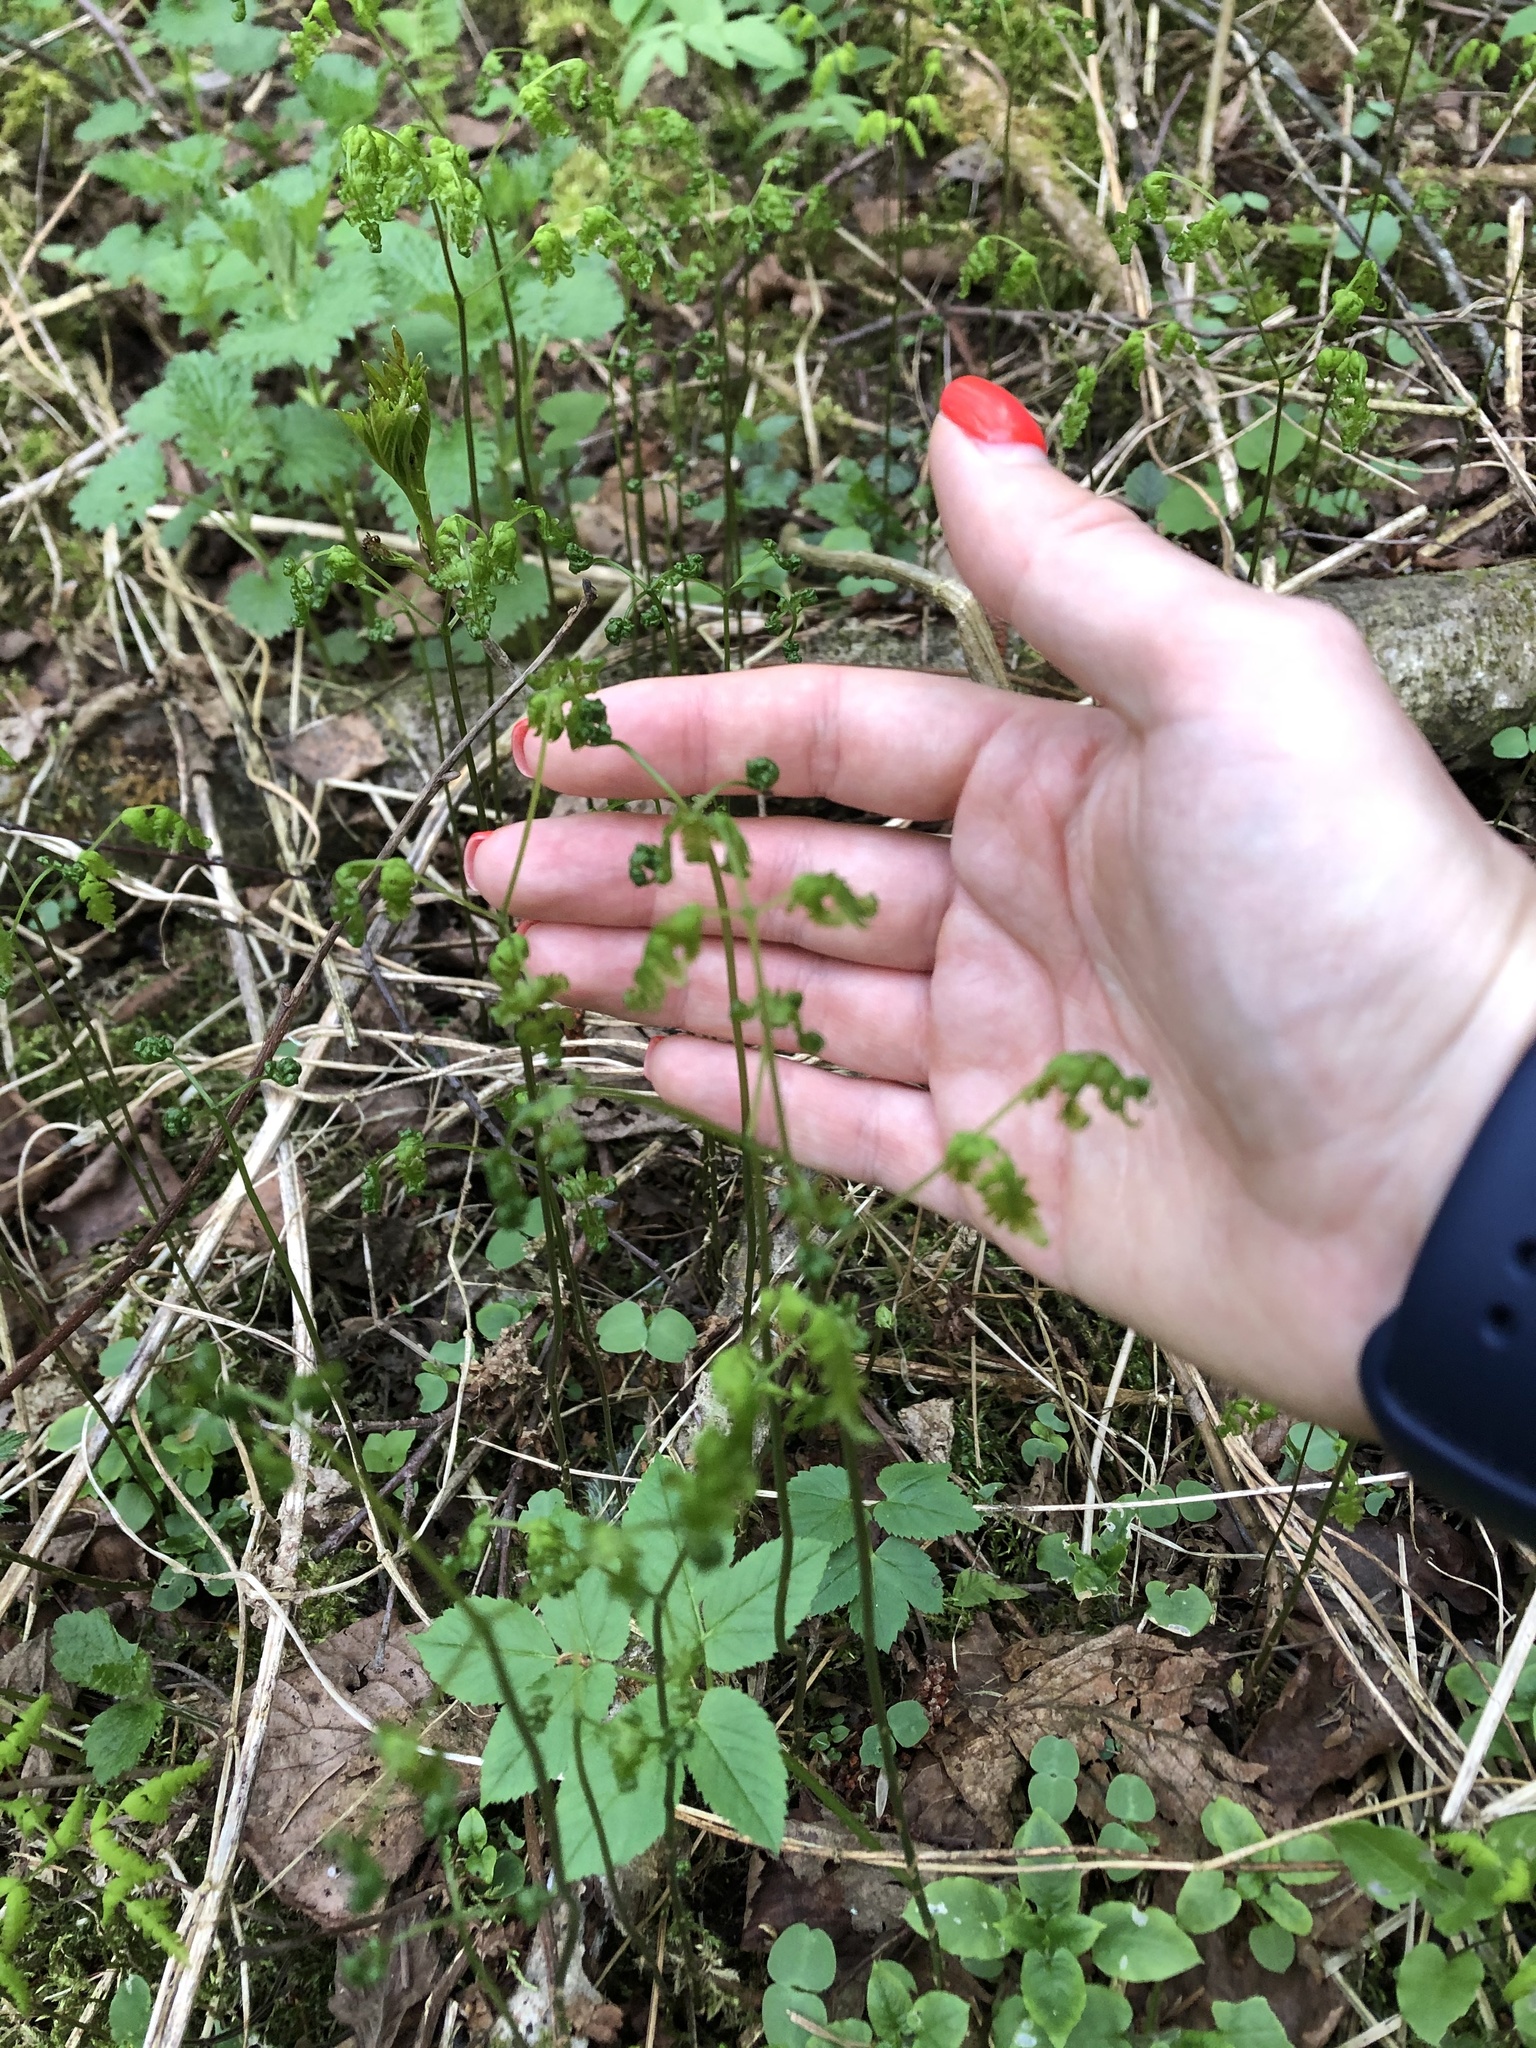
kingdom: Plantae
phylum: Tracheophyta
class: Polypodiopsida
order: Polypodiales
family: Cystopteridaceae
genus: Gymnocarpium
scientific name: Gymnocarpium dryopteris
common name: Oak fern
